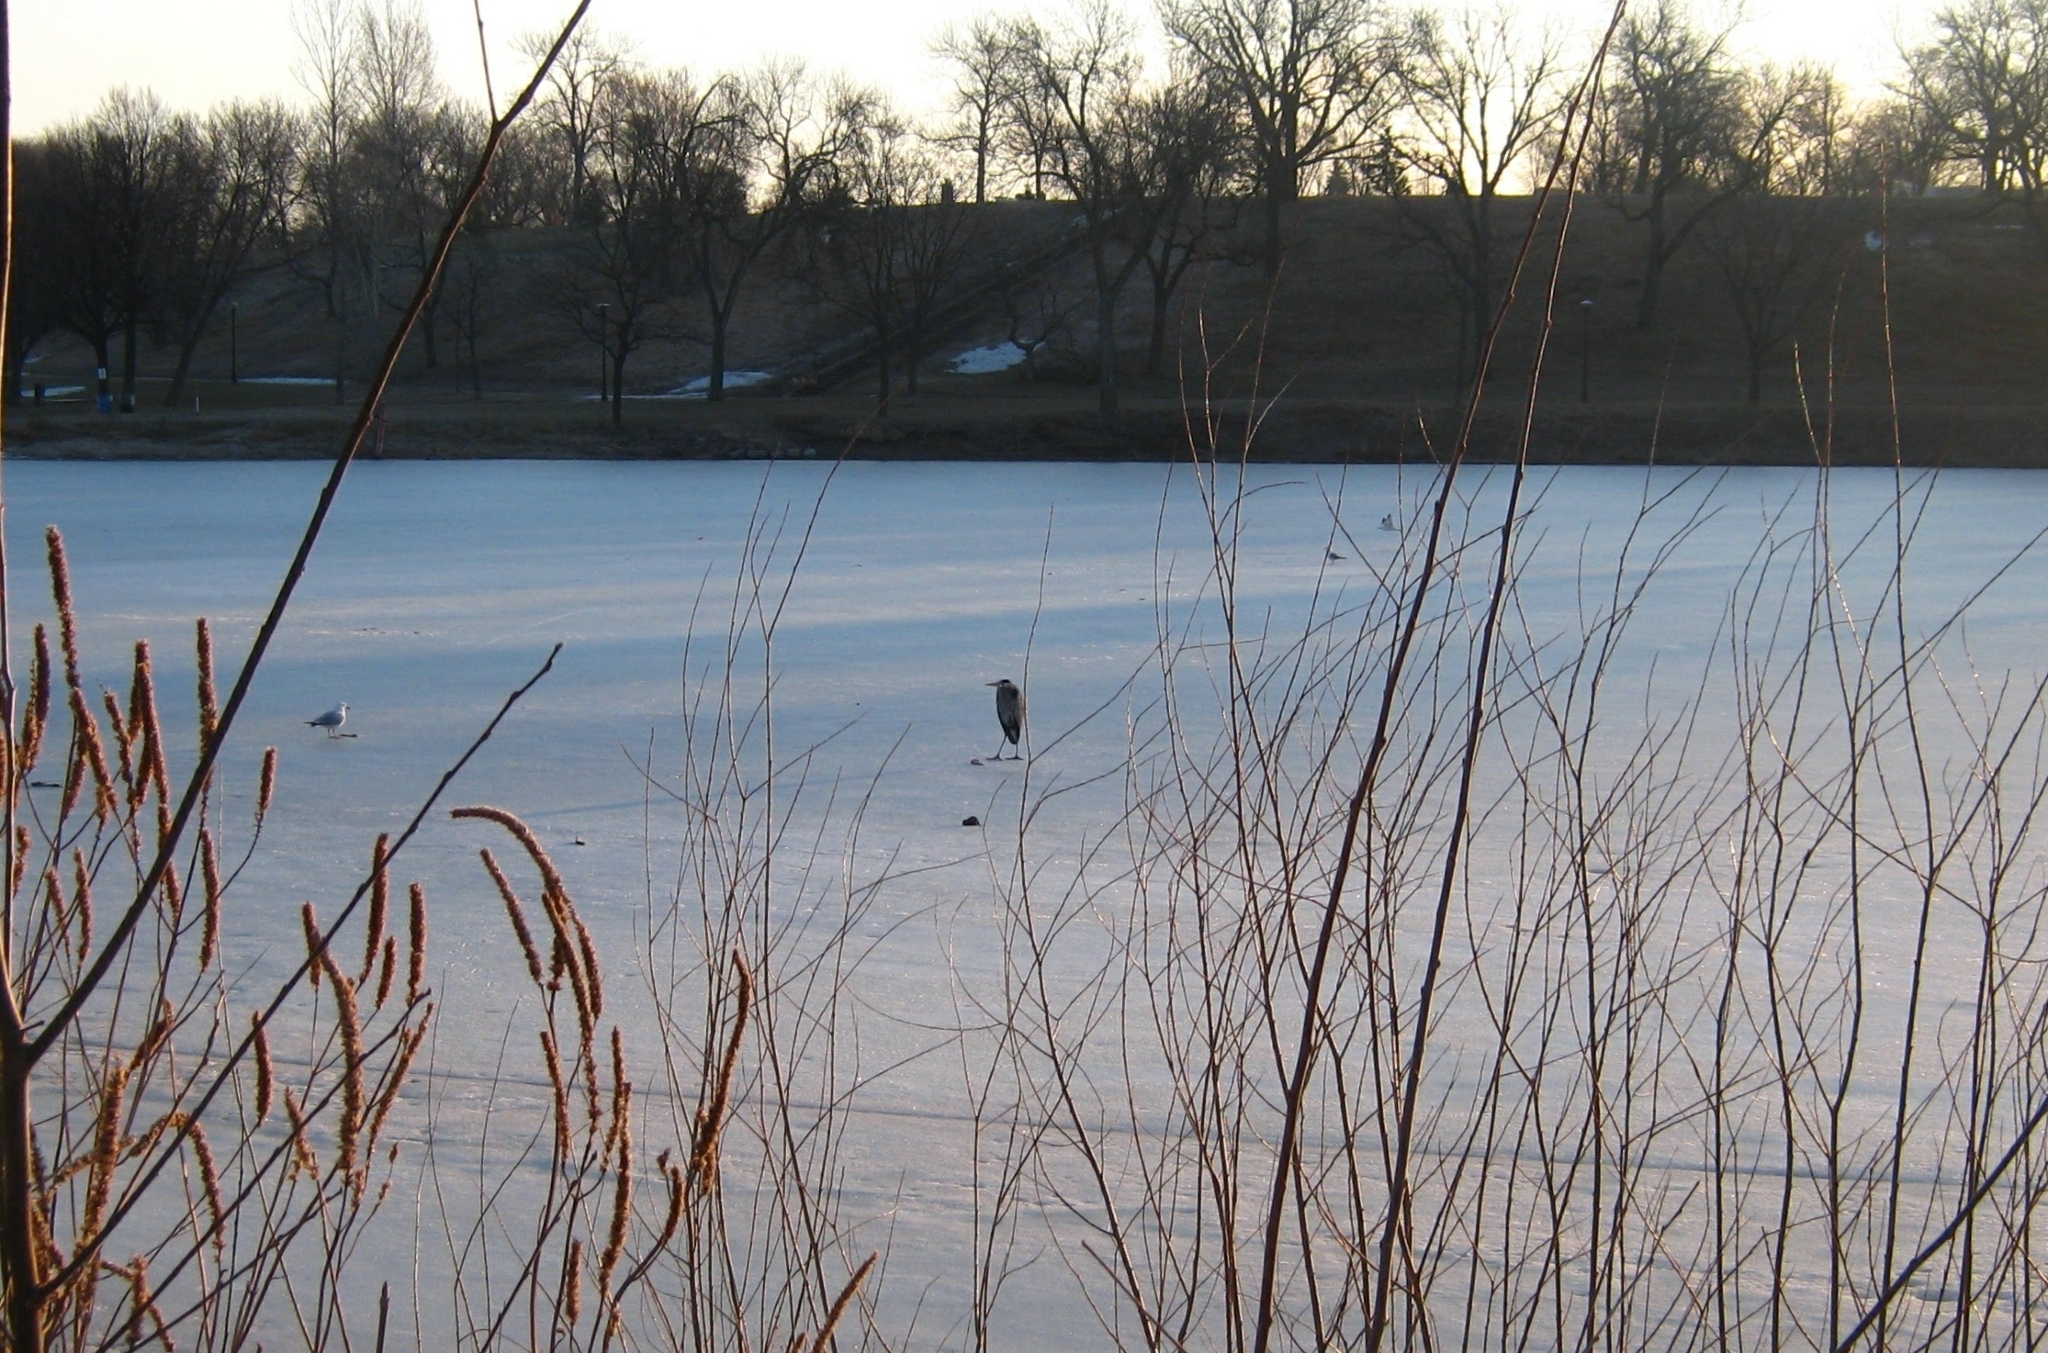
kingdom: Animalia
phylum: Chordata
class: Aves
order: Pelecaniformes
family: Ardeidae
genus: Ardea
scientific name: Ardea herodias
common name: Great blue heron
